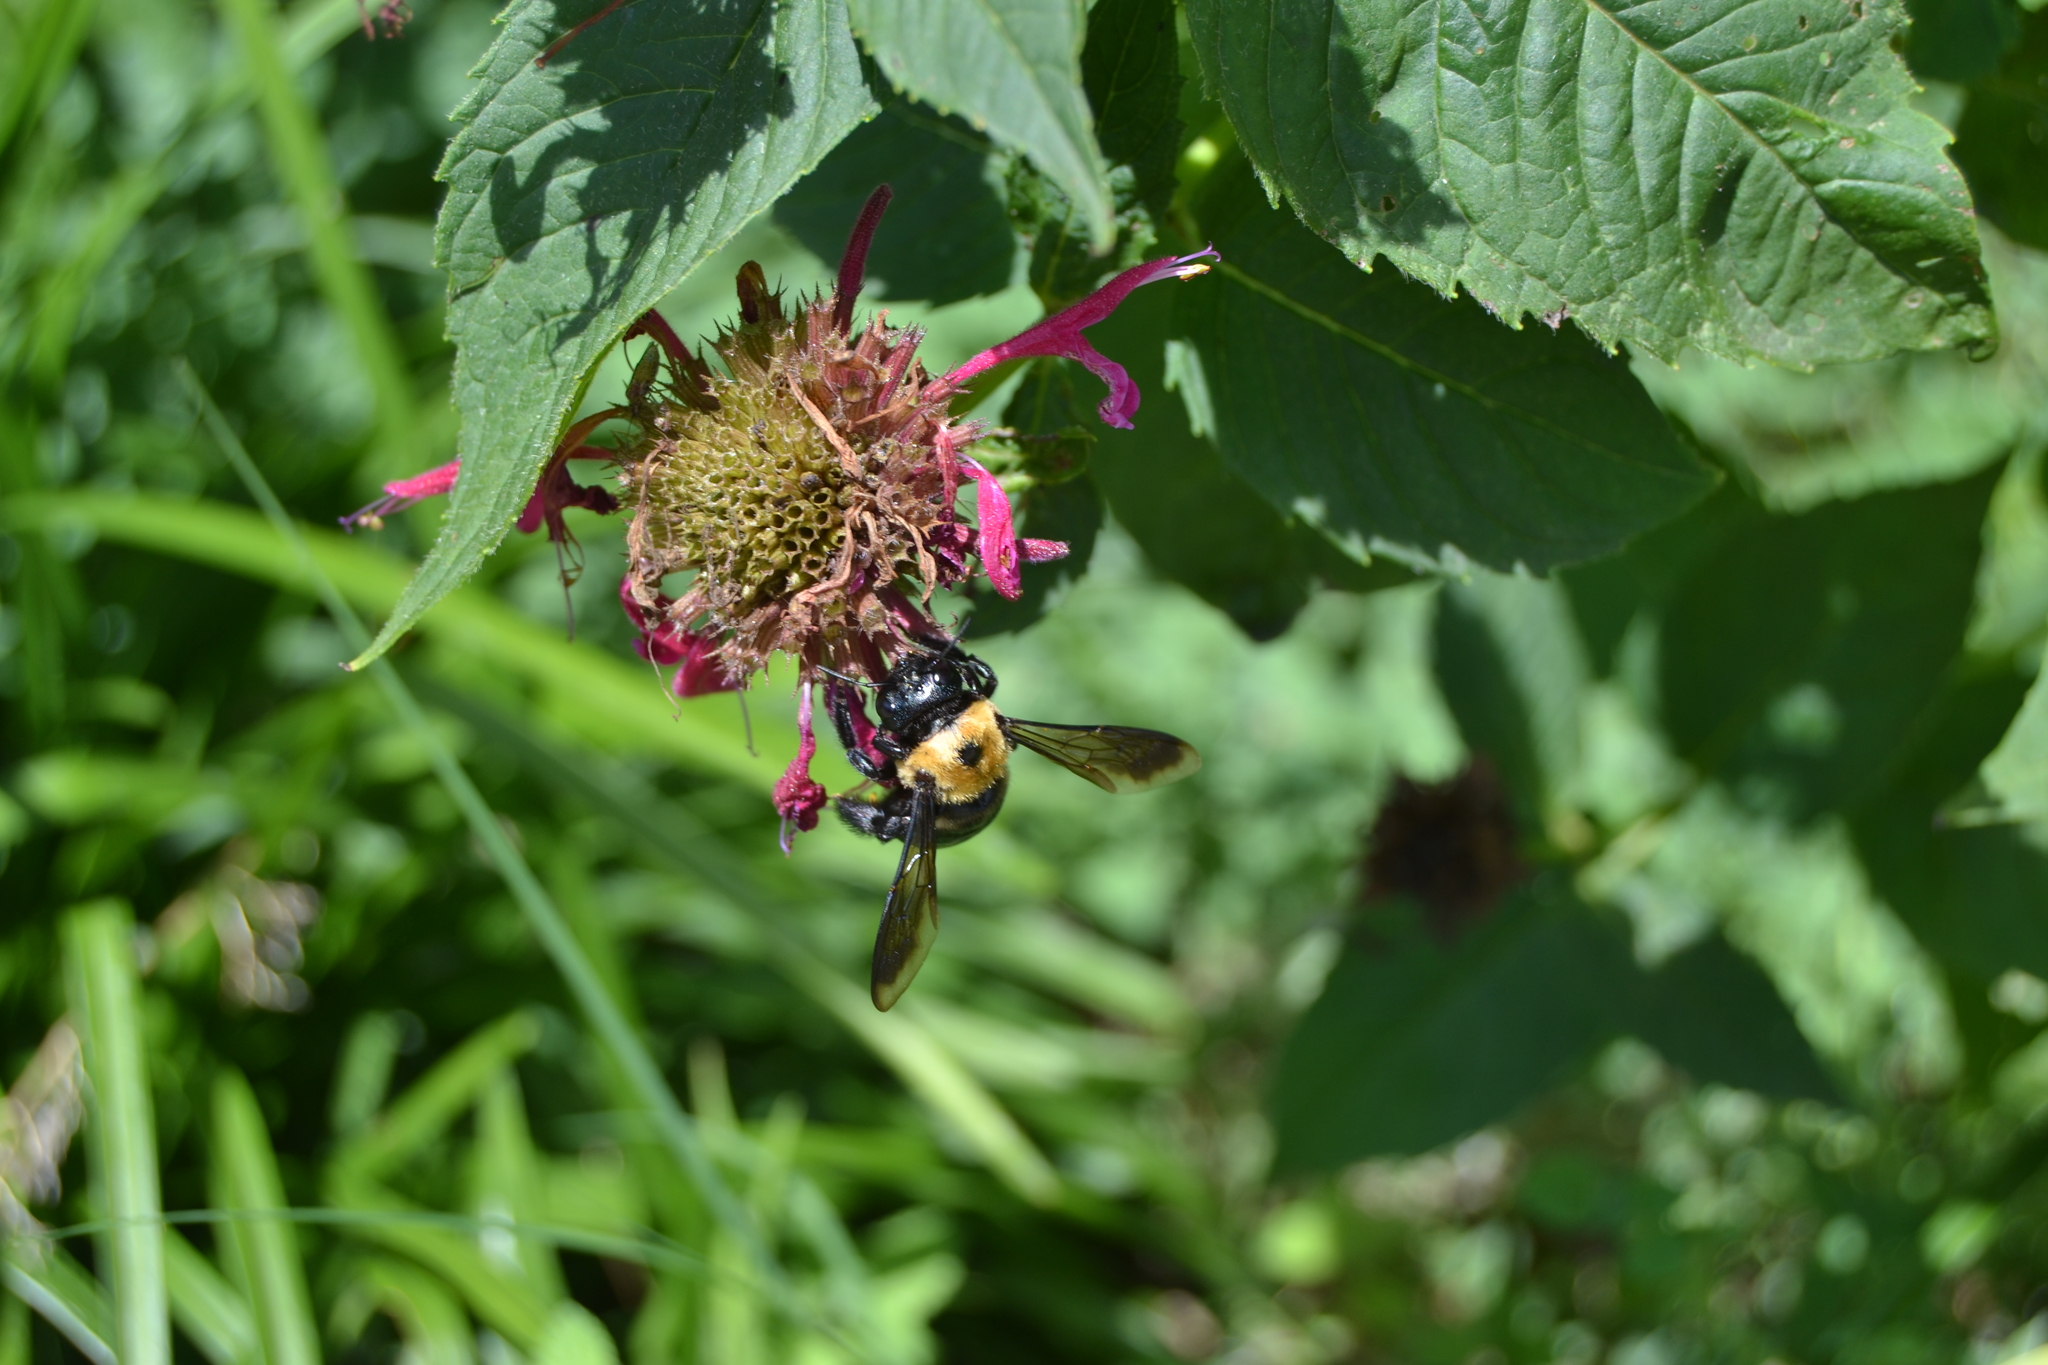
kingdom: Animalia
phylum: Arthropoda
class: Insecta
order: Hymenoptera
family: Apidae
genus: Xylocopa
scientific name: Xylocopa virginica
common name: Carpenter bee
